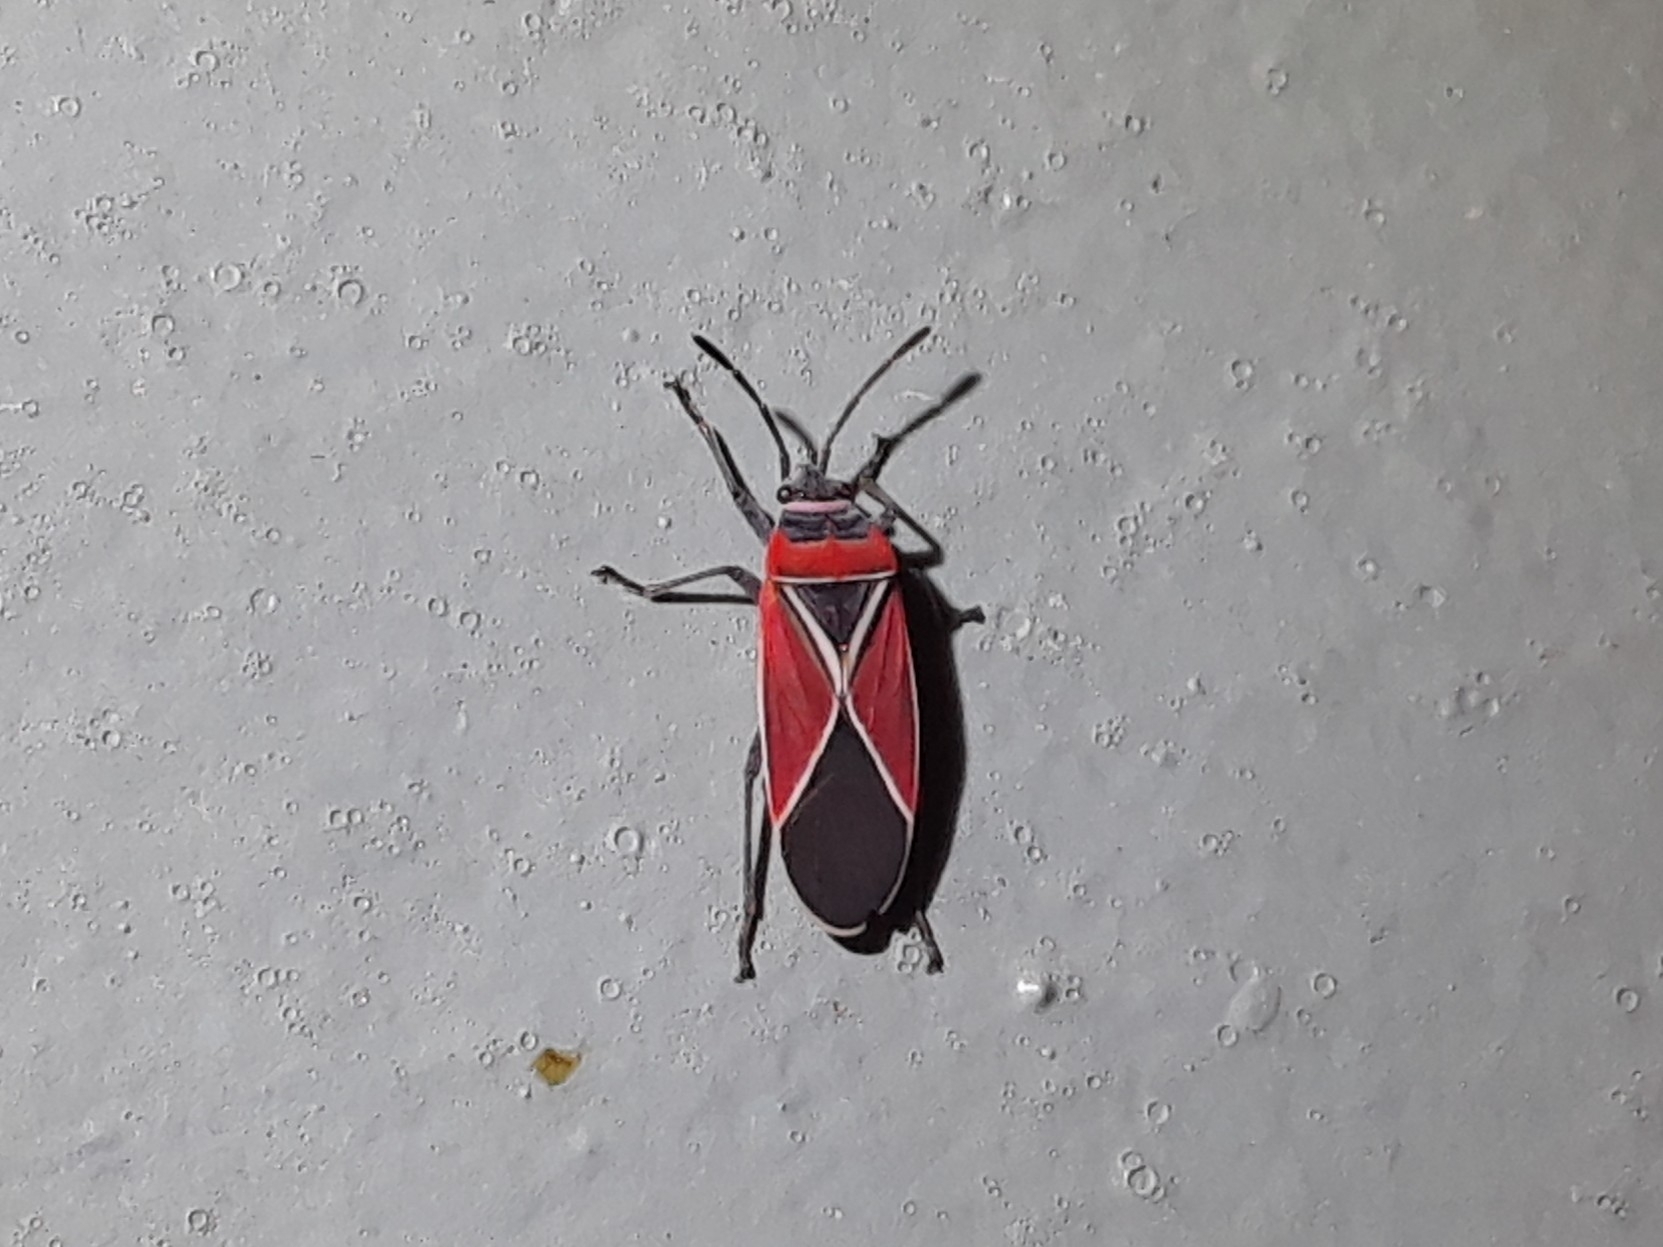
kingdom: Animalia
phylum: Arthropoda
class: Insecta
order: Hemiptera
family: Lygaeidae
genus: Neacoryphus
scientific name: Neacoryphus bicrucis
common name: Lygaeid bug
